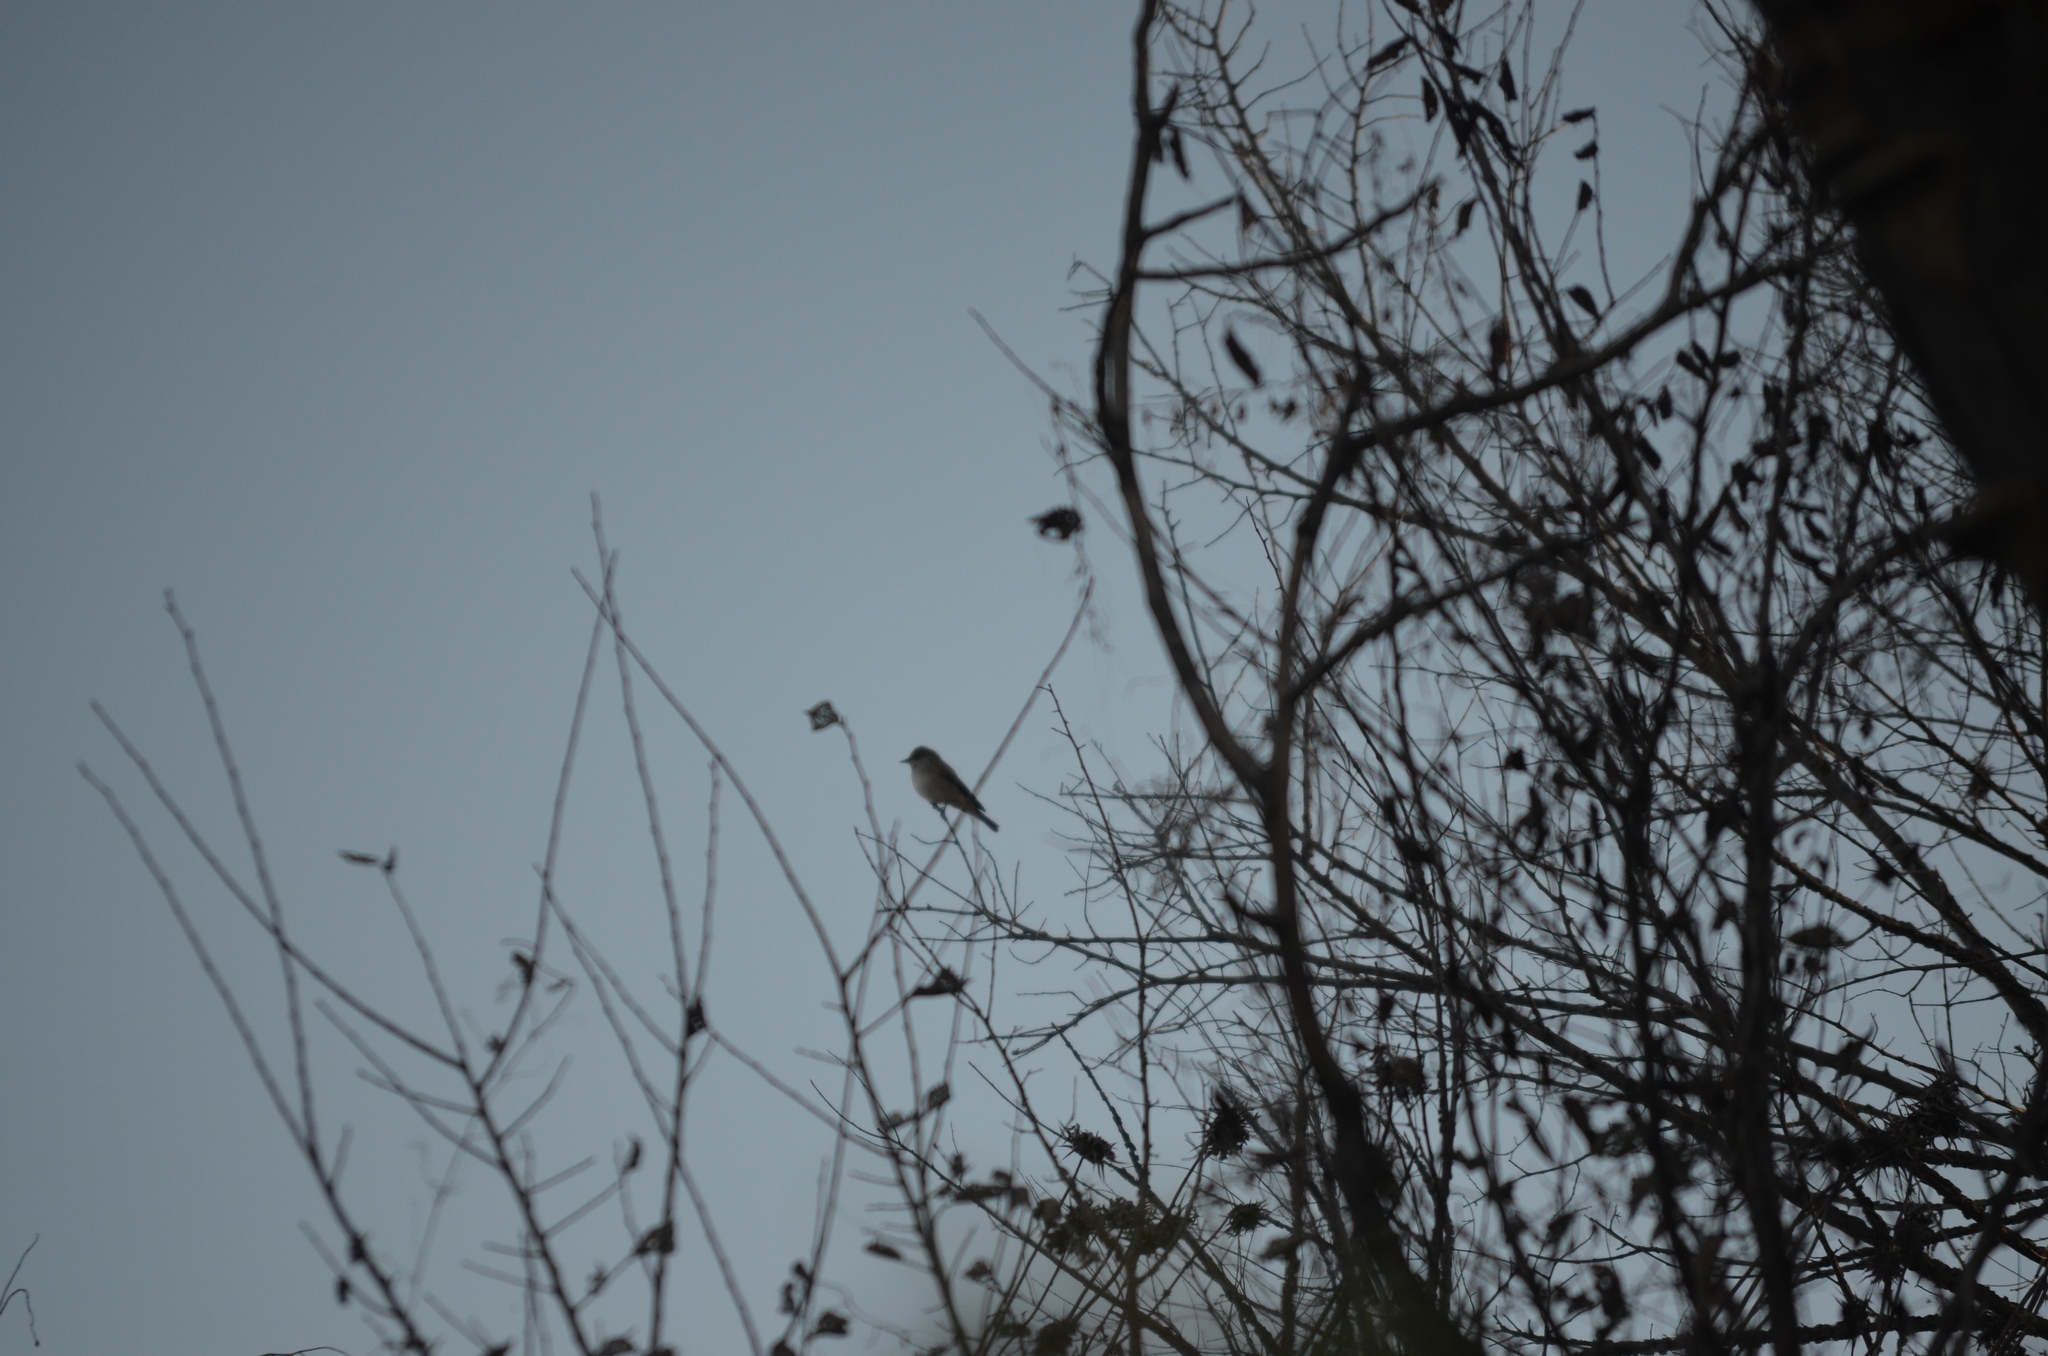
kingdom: Animalia
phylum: Chordata
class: Aves
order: Passeriformes
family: Muscicapidae
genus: Muscicapa
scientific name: Muscicapa striata
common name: Spotted flycatcher
